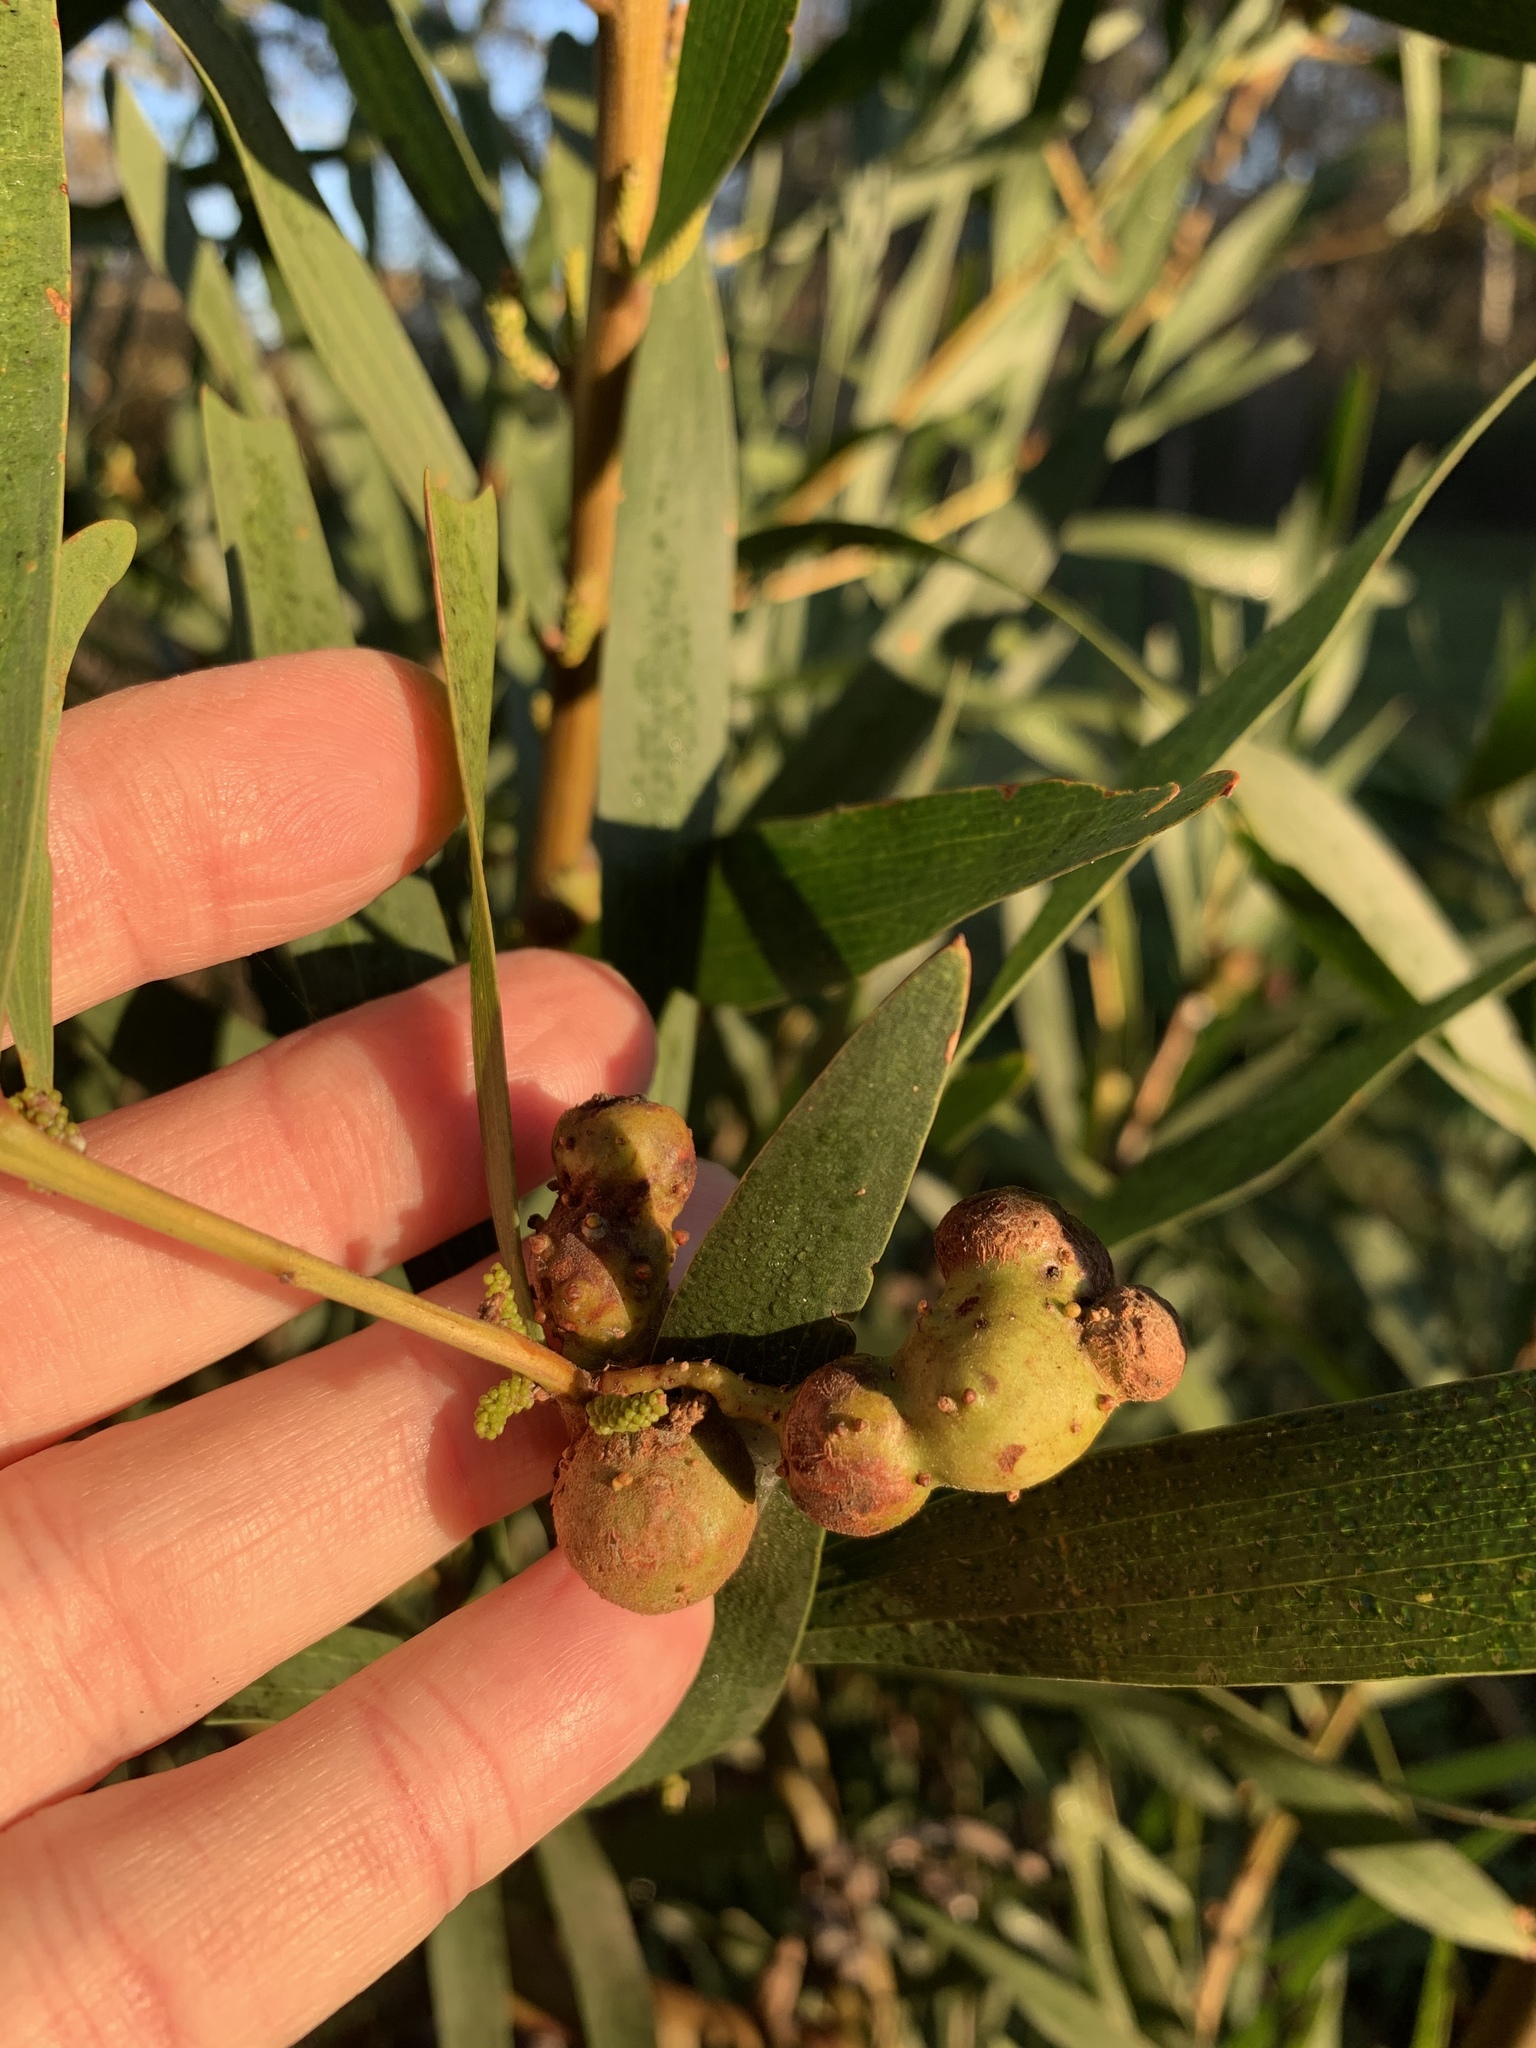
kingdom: Animalia
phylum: Arthropoda
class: Insecta
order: Hymenoptera
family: Pteromalidae
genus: Trichilogaster
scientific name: Trichilogaster acaciaelongifoliae
